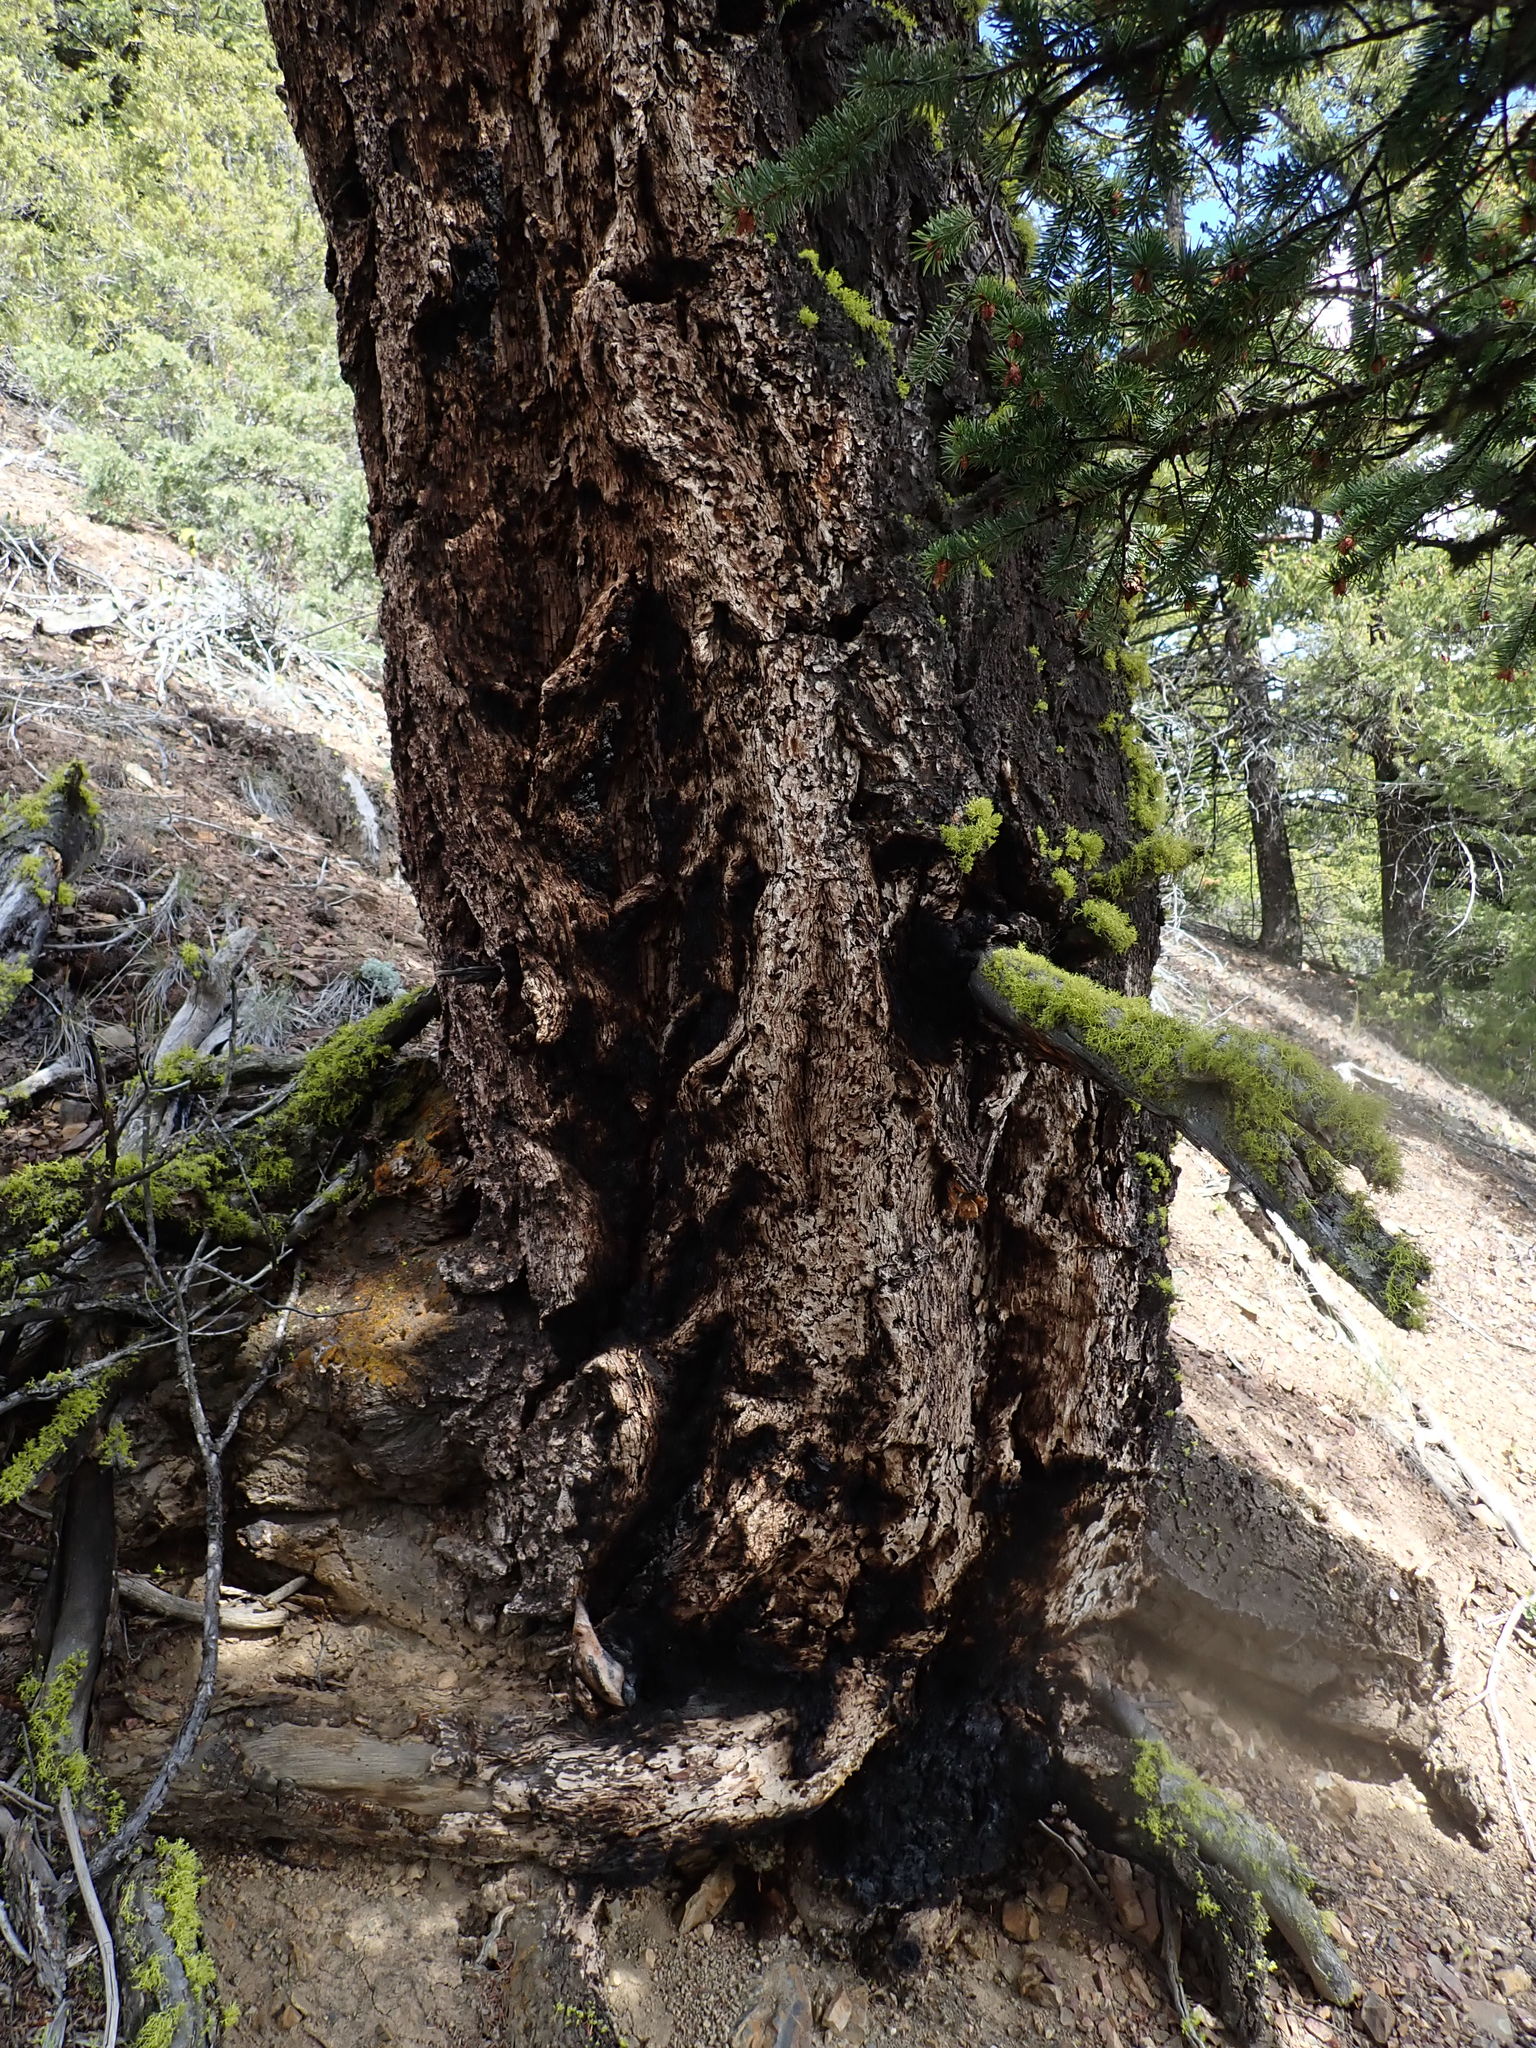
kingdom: Plantae
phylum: Tracheophyta
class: Pinopsida
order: Pinales
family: Pinaceae
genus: Pseudotsuga
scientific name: Pseudotsuga menziesii
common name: Douglas fir
